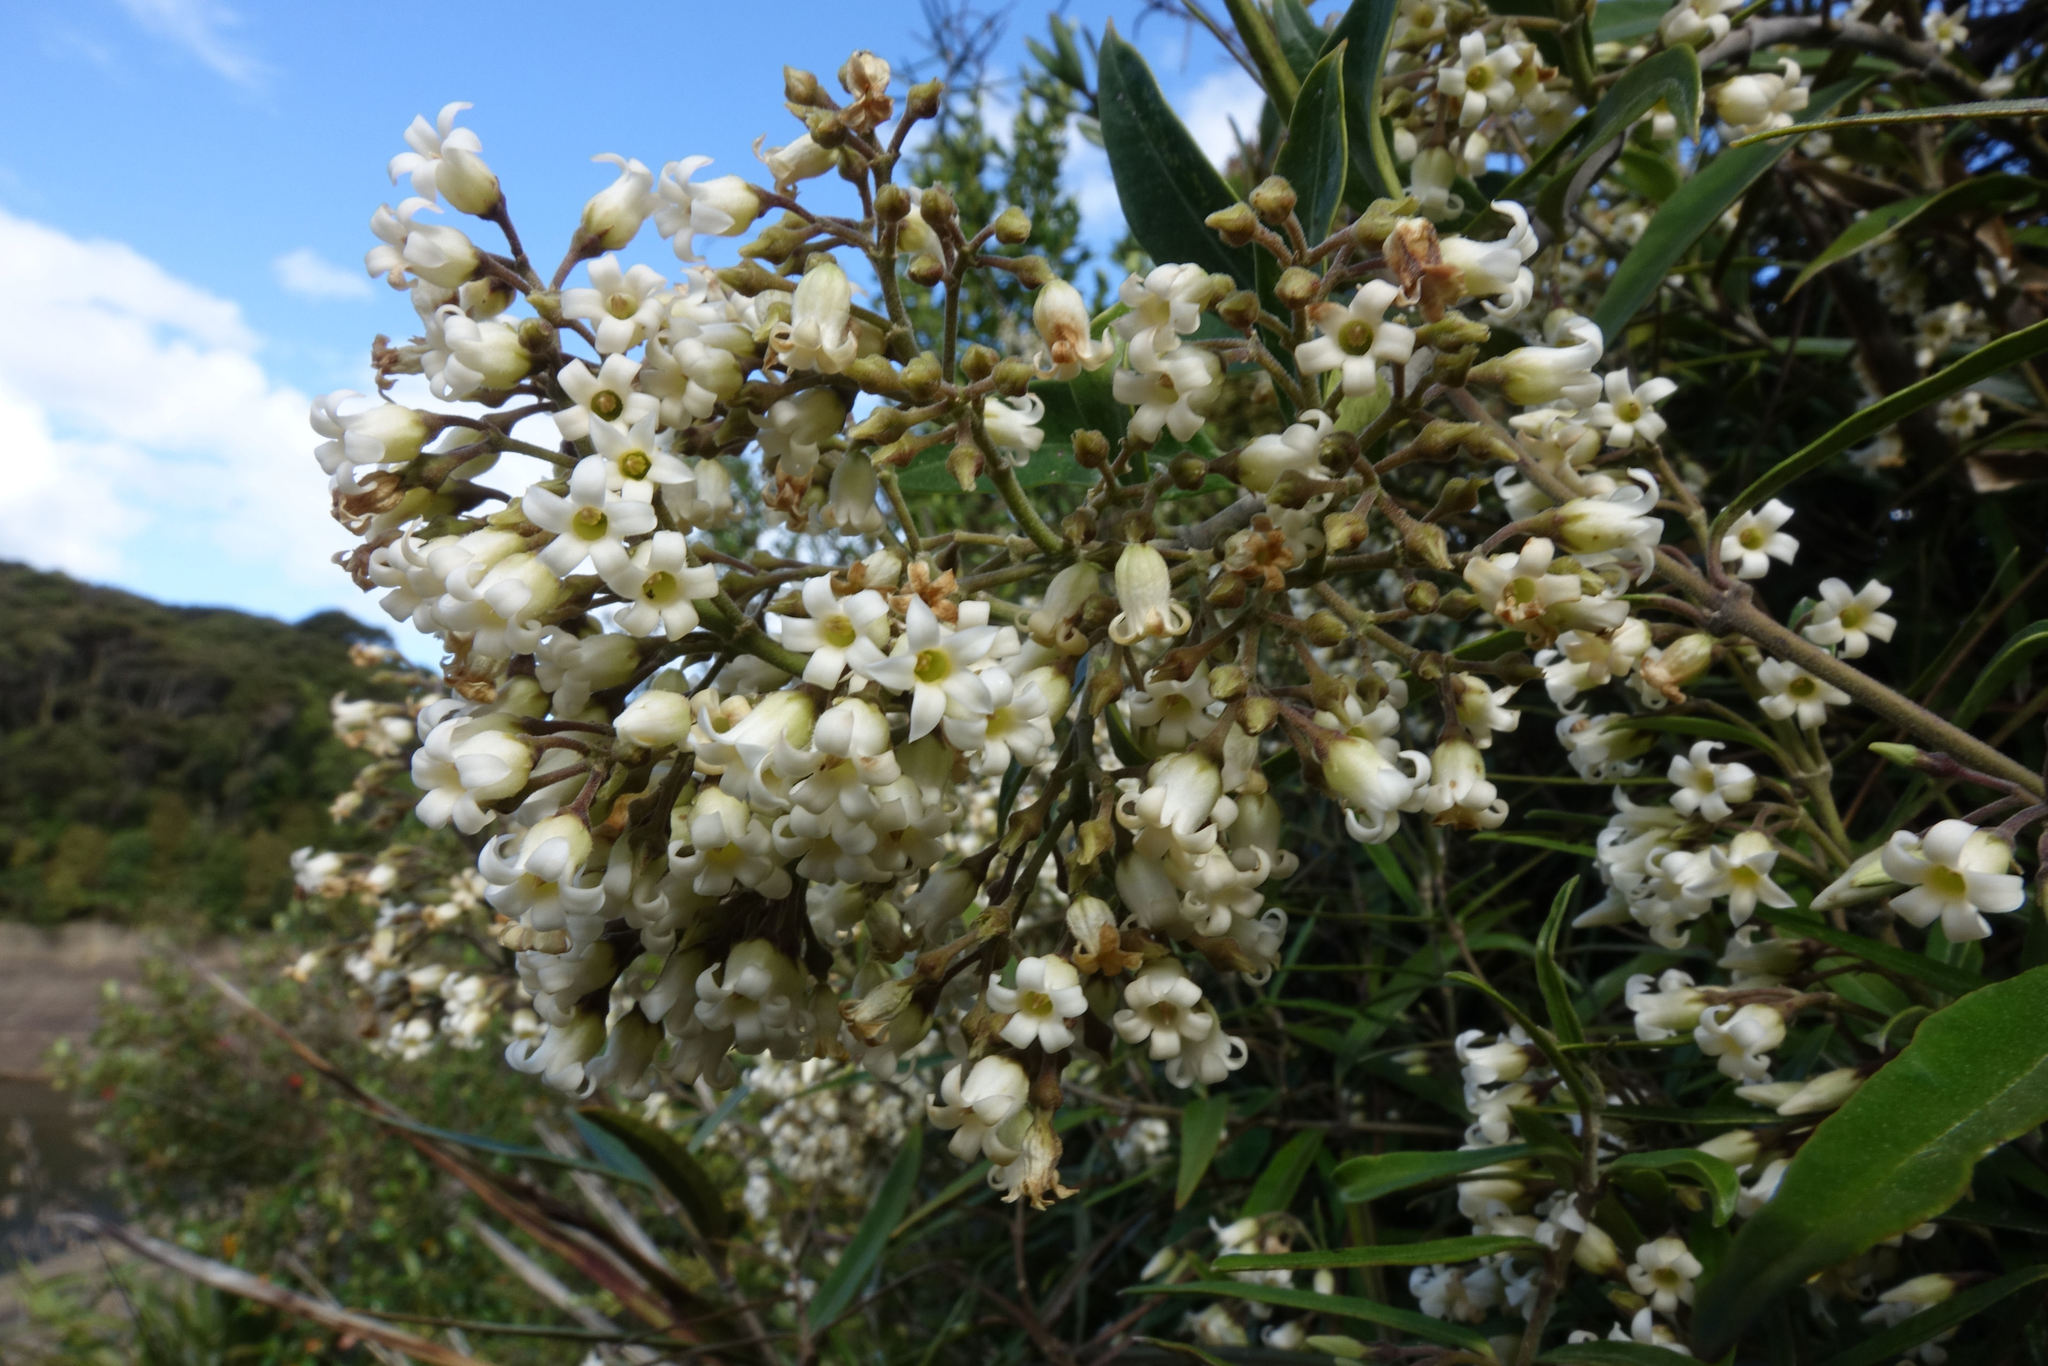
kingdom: Plantae
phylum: Tracheophyta
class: Magnoliopsida
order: Gentianales
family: Apocynaceae
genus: Parsonsia
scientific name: Parsonsia heterophylla
